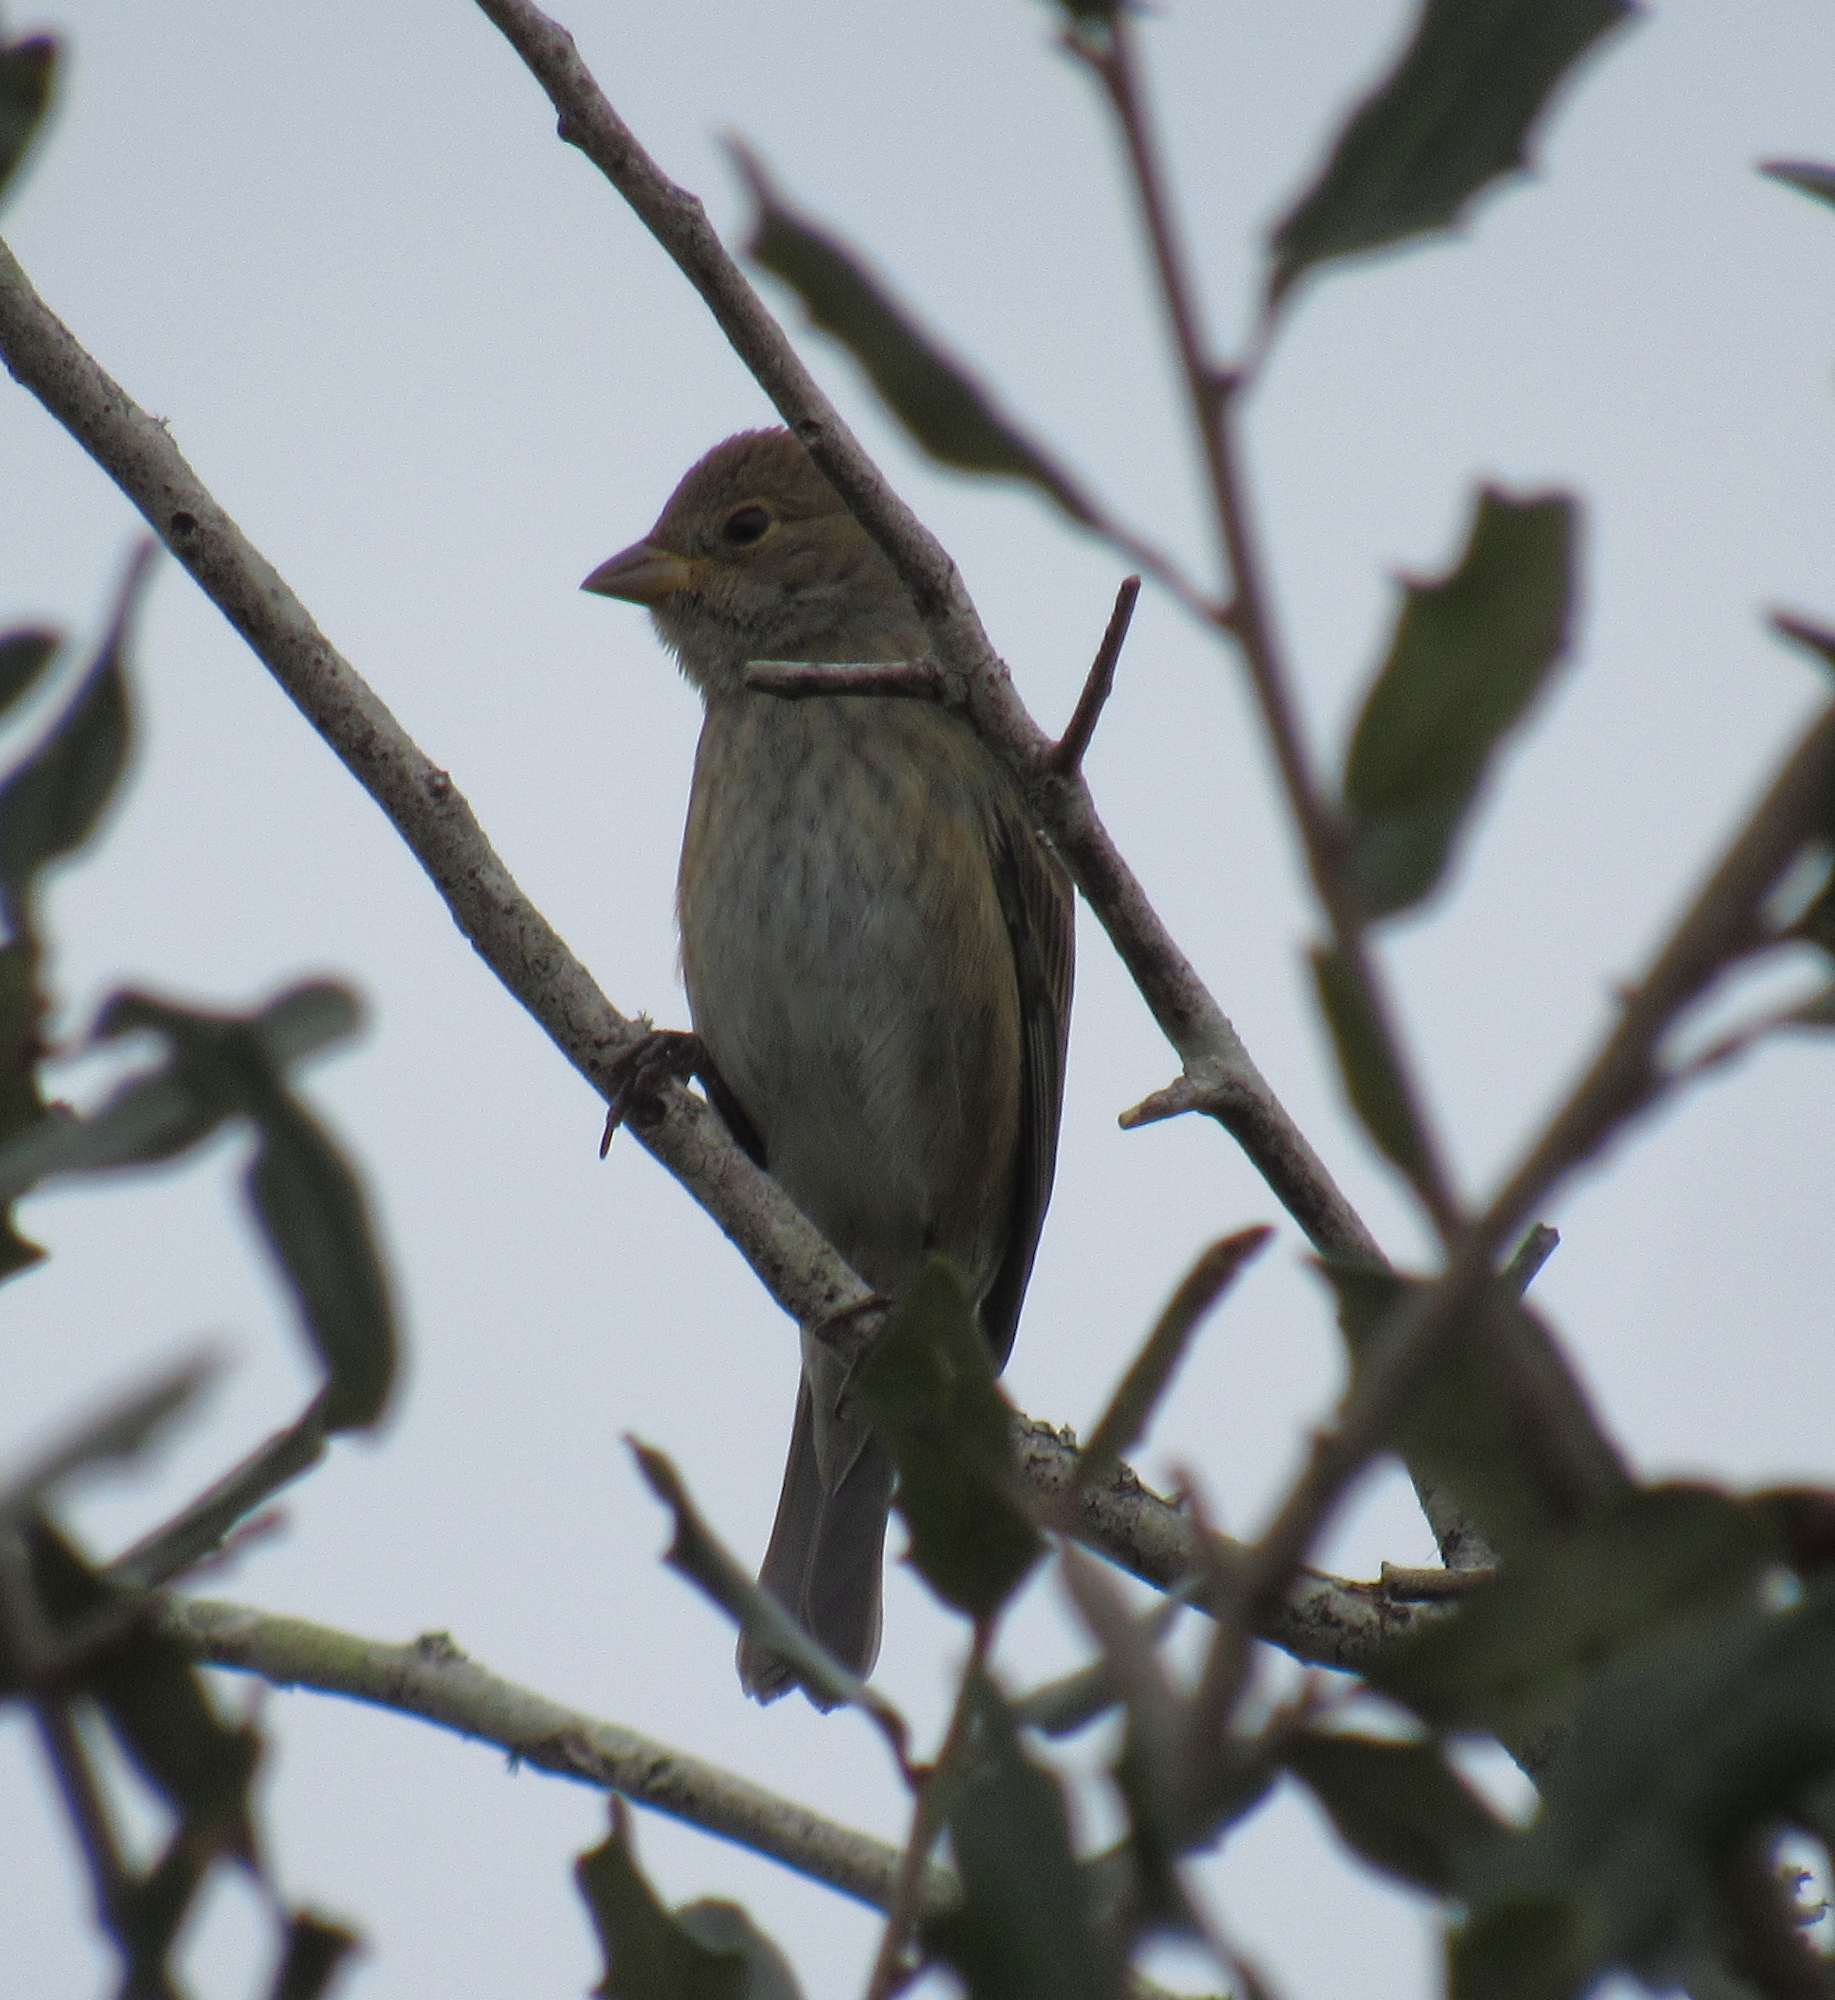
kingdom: Animalia
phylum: Chordata
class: Aves
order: Passeriformes
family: Cardinalidae
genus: Passerina
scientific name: Passerina cyanea
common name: Indigo bunting
